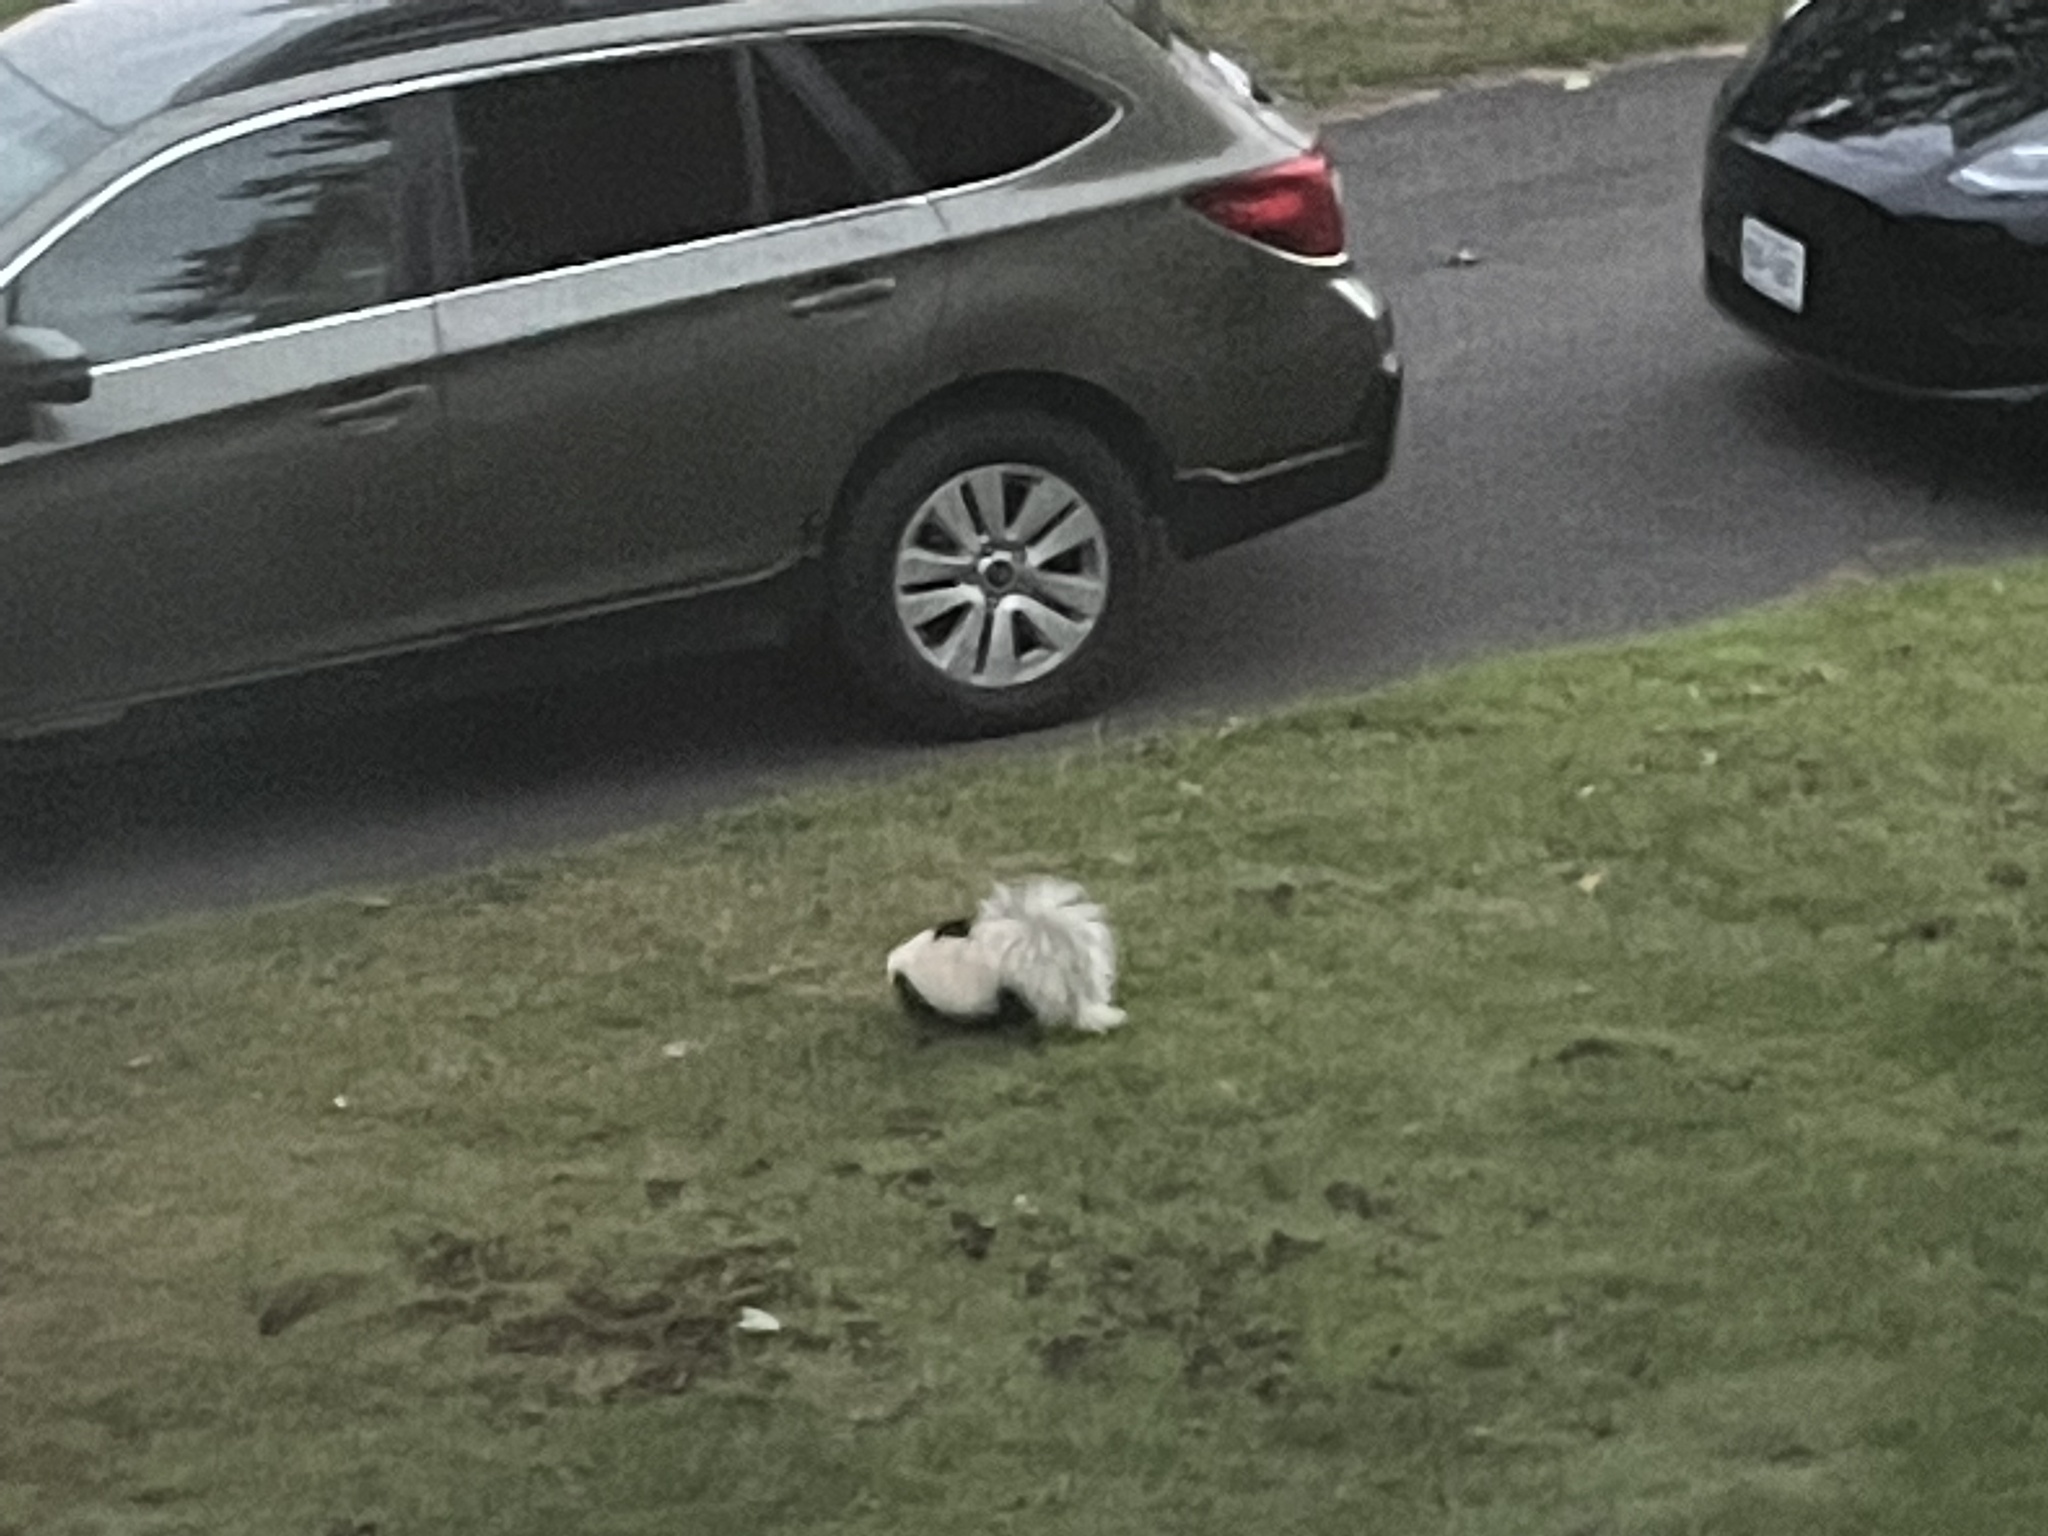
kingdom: Animalia
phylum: Chordata
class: Mammalia
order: Carnivora
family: Mephitidae
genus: Mephitis
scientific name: Mephitis mephitis
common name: Striped skunk
